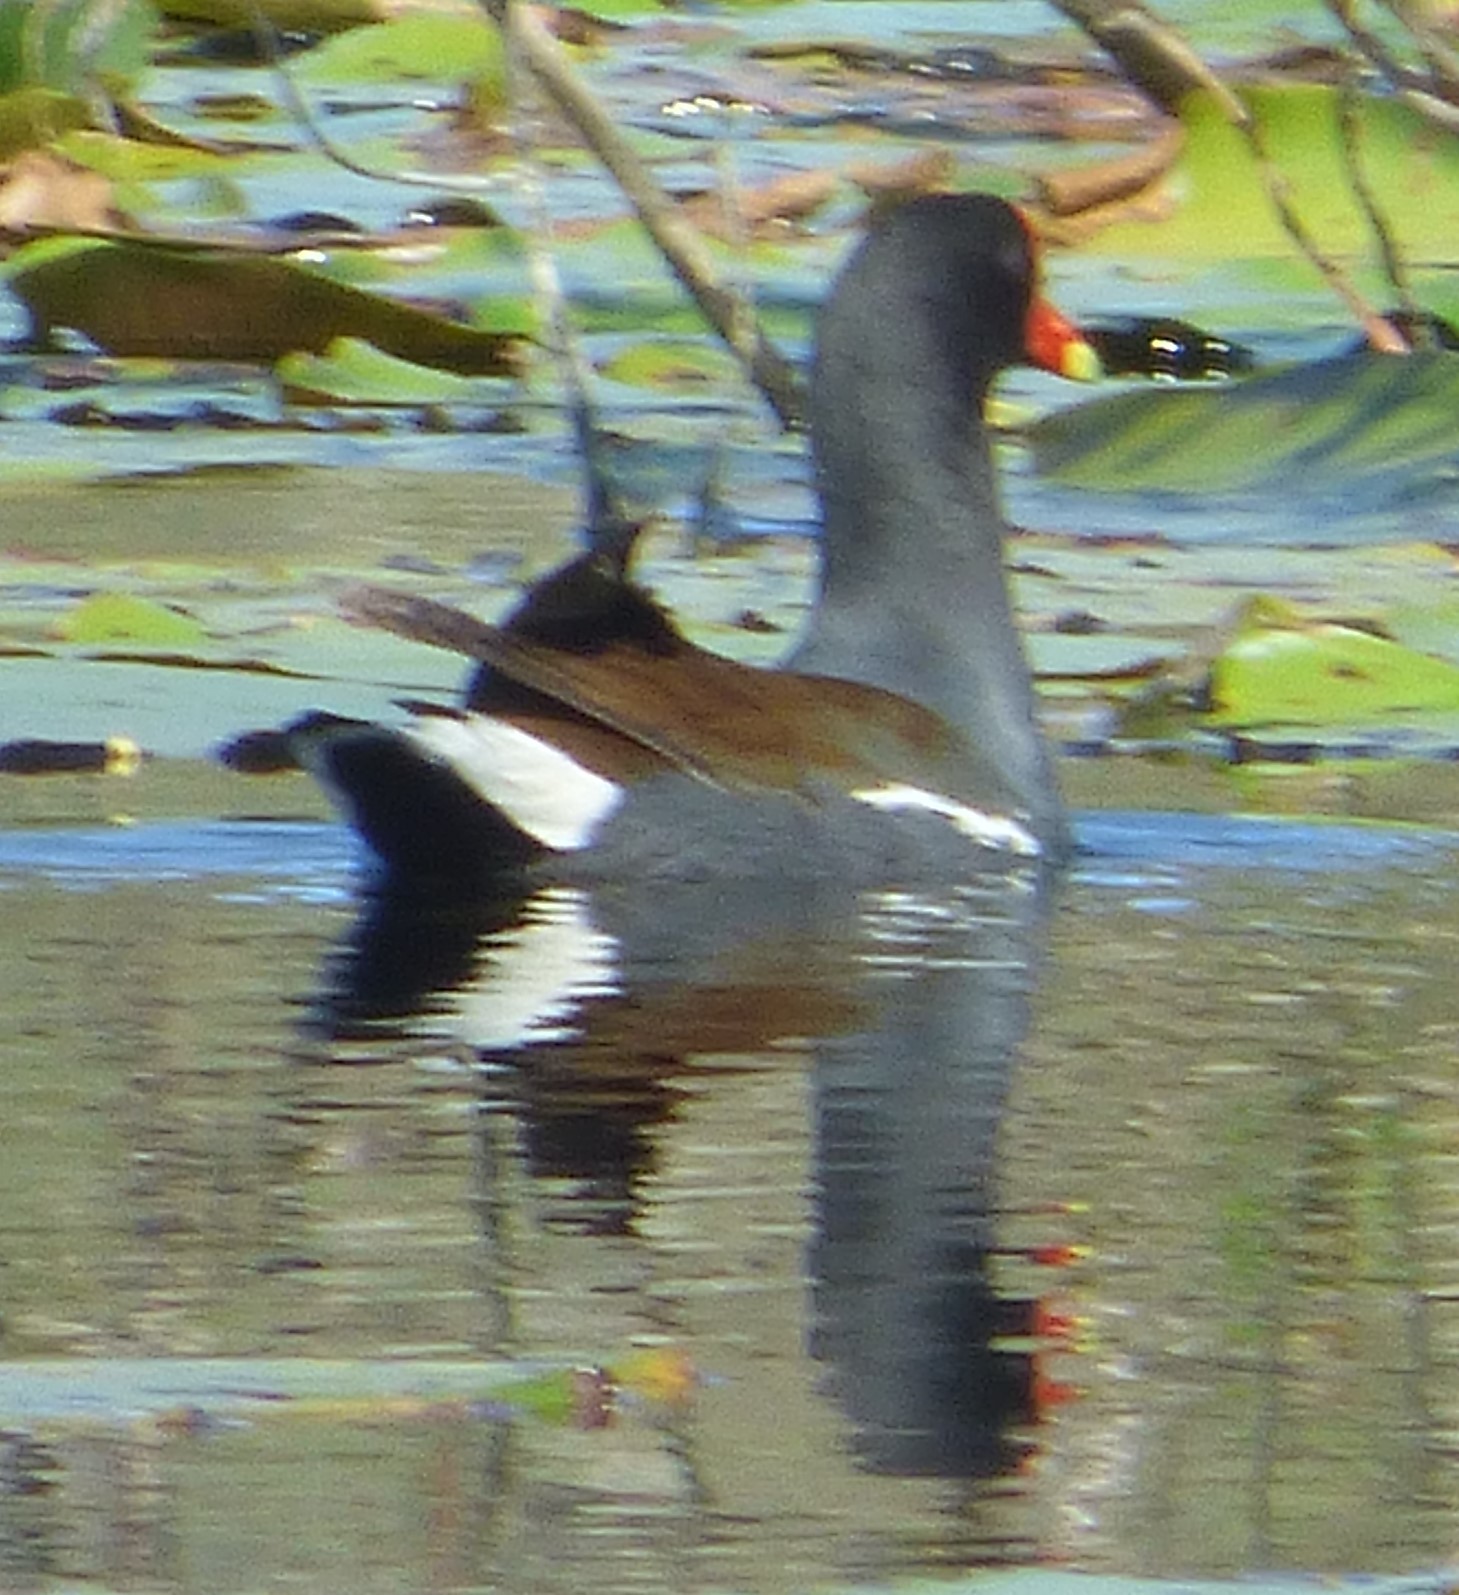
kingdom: Animalia
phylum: Chordata
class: Aves
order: Gruiformes
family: Rallidae
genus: Gallinula
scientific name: Gallinula chloropus
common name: Common moorhen
